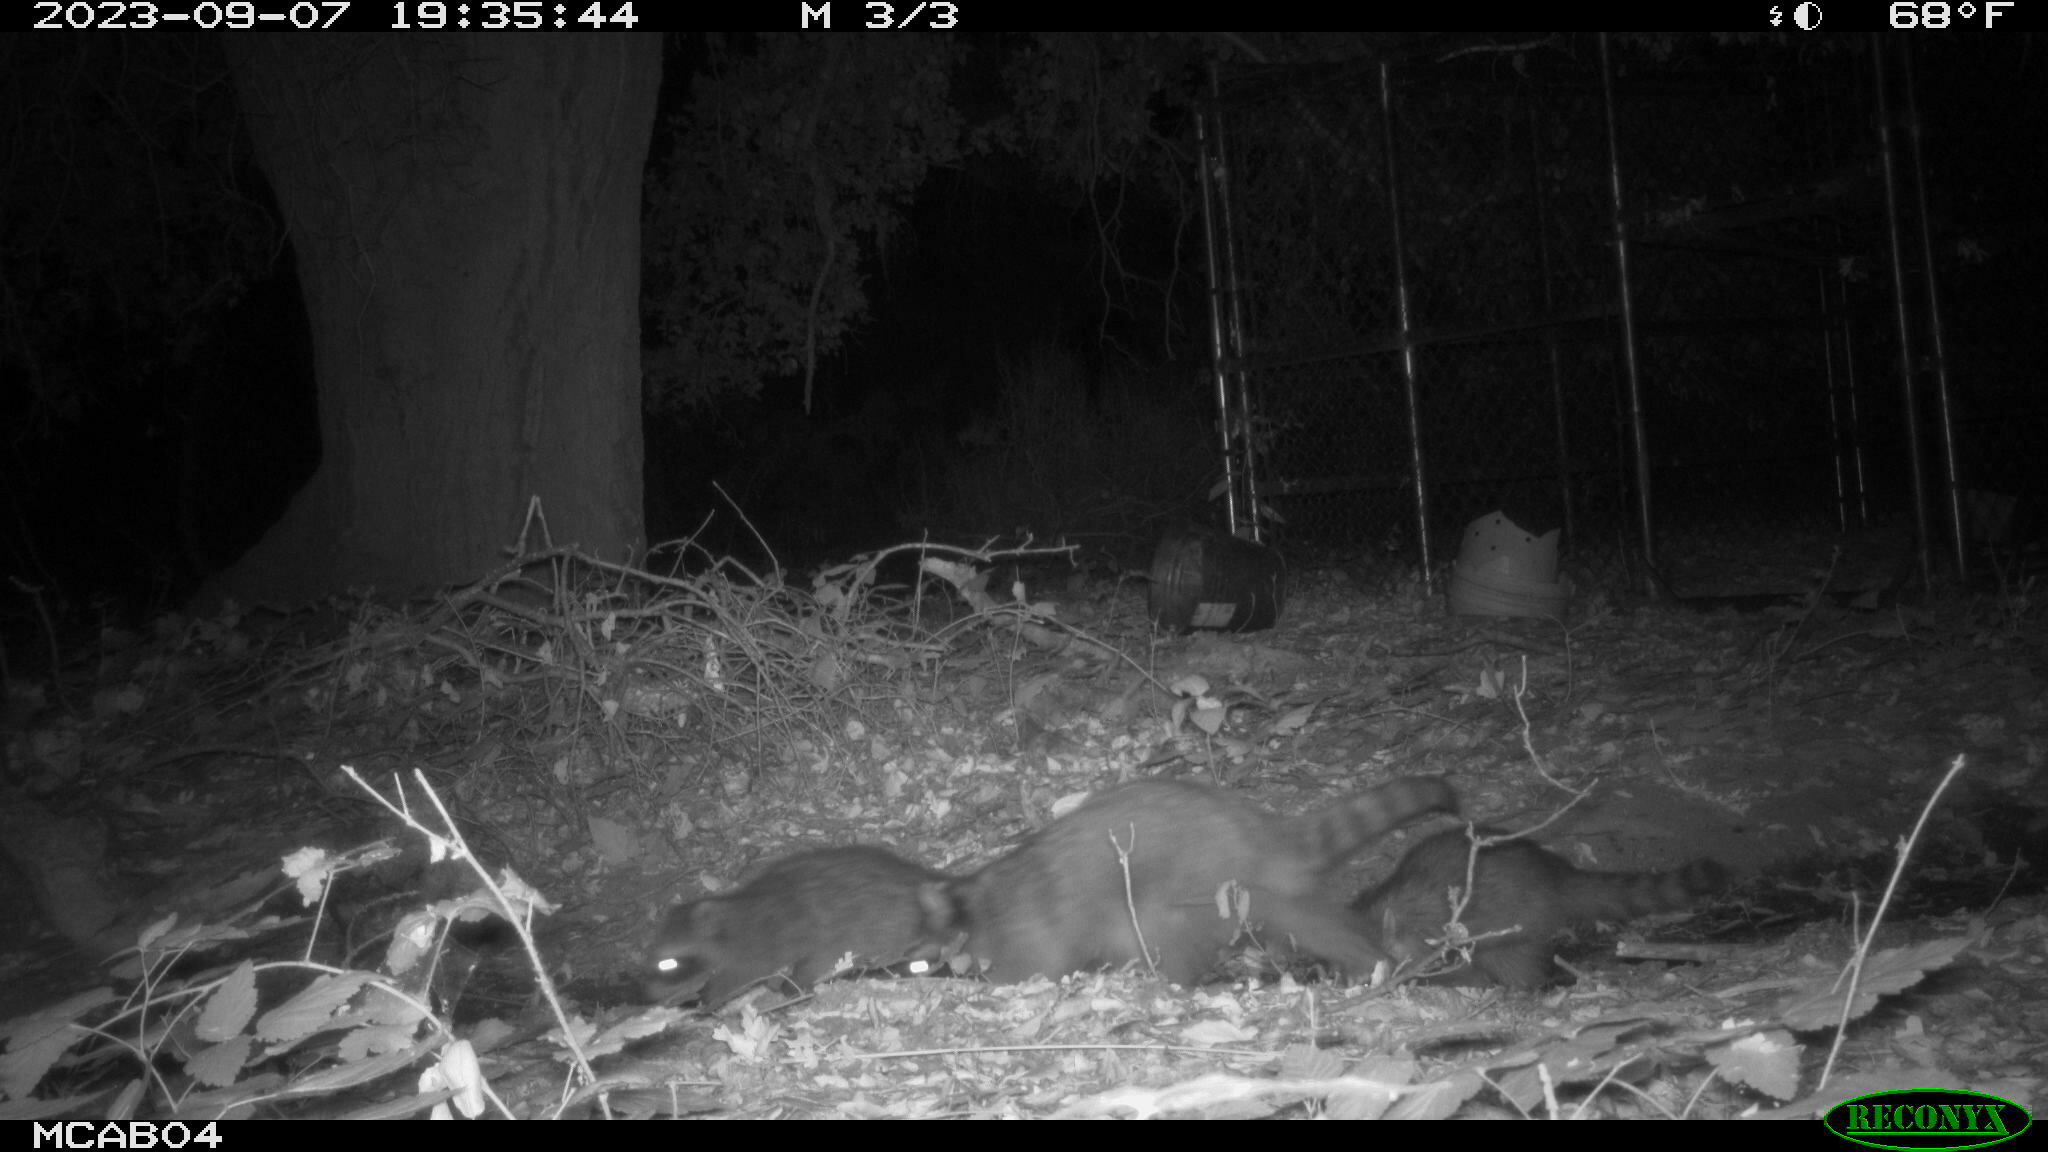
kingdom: Animalia
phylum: Chordata
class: Mammalia
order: Carnivora
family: Procyonidae
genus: Procyon
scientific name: Procyon lotor
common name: Raccoon
